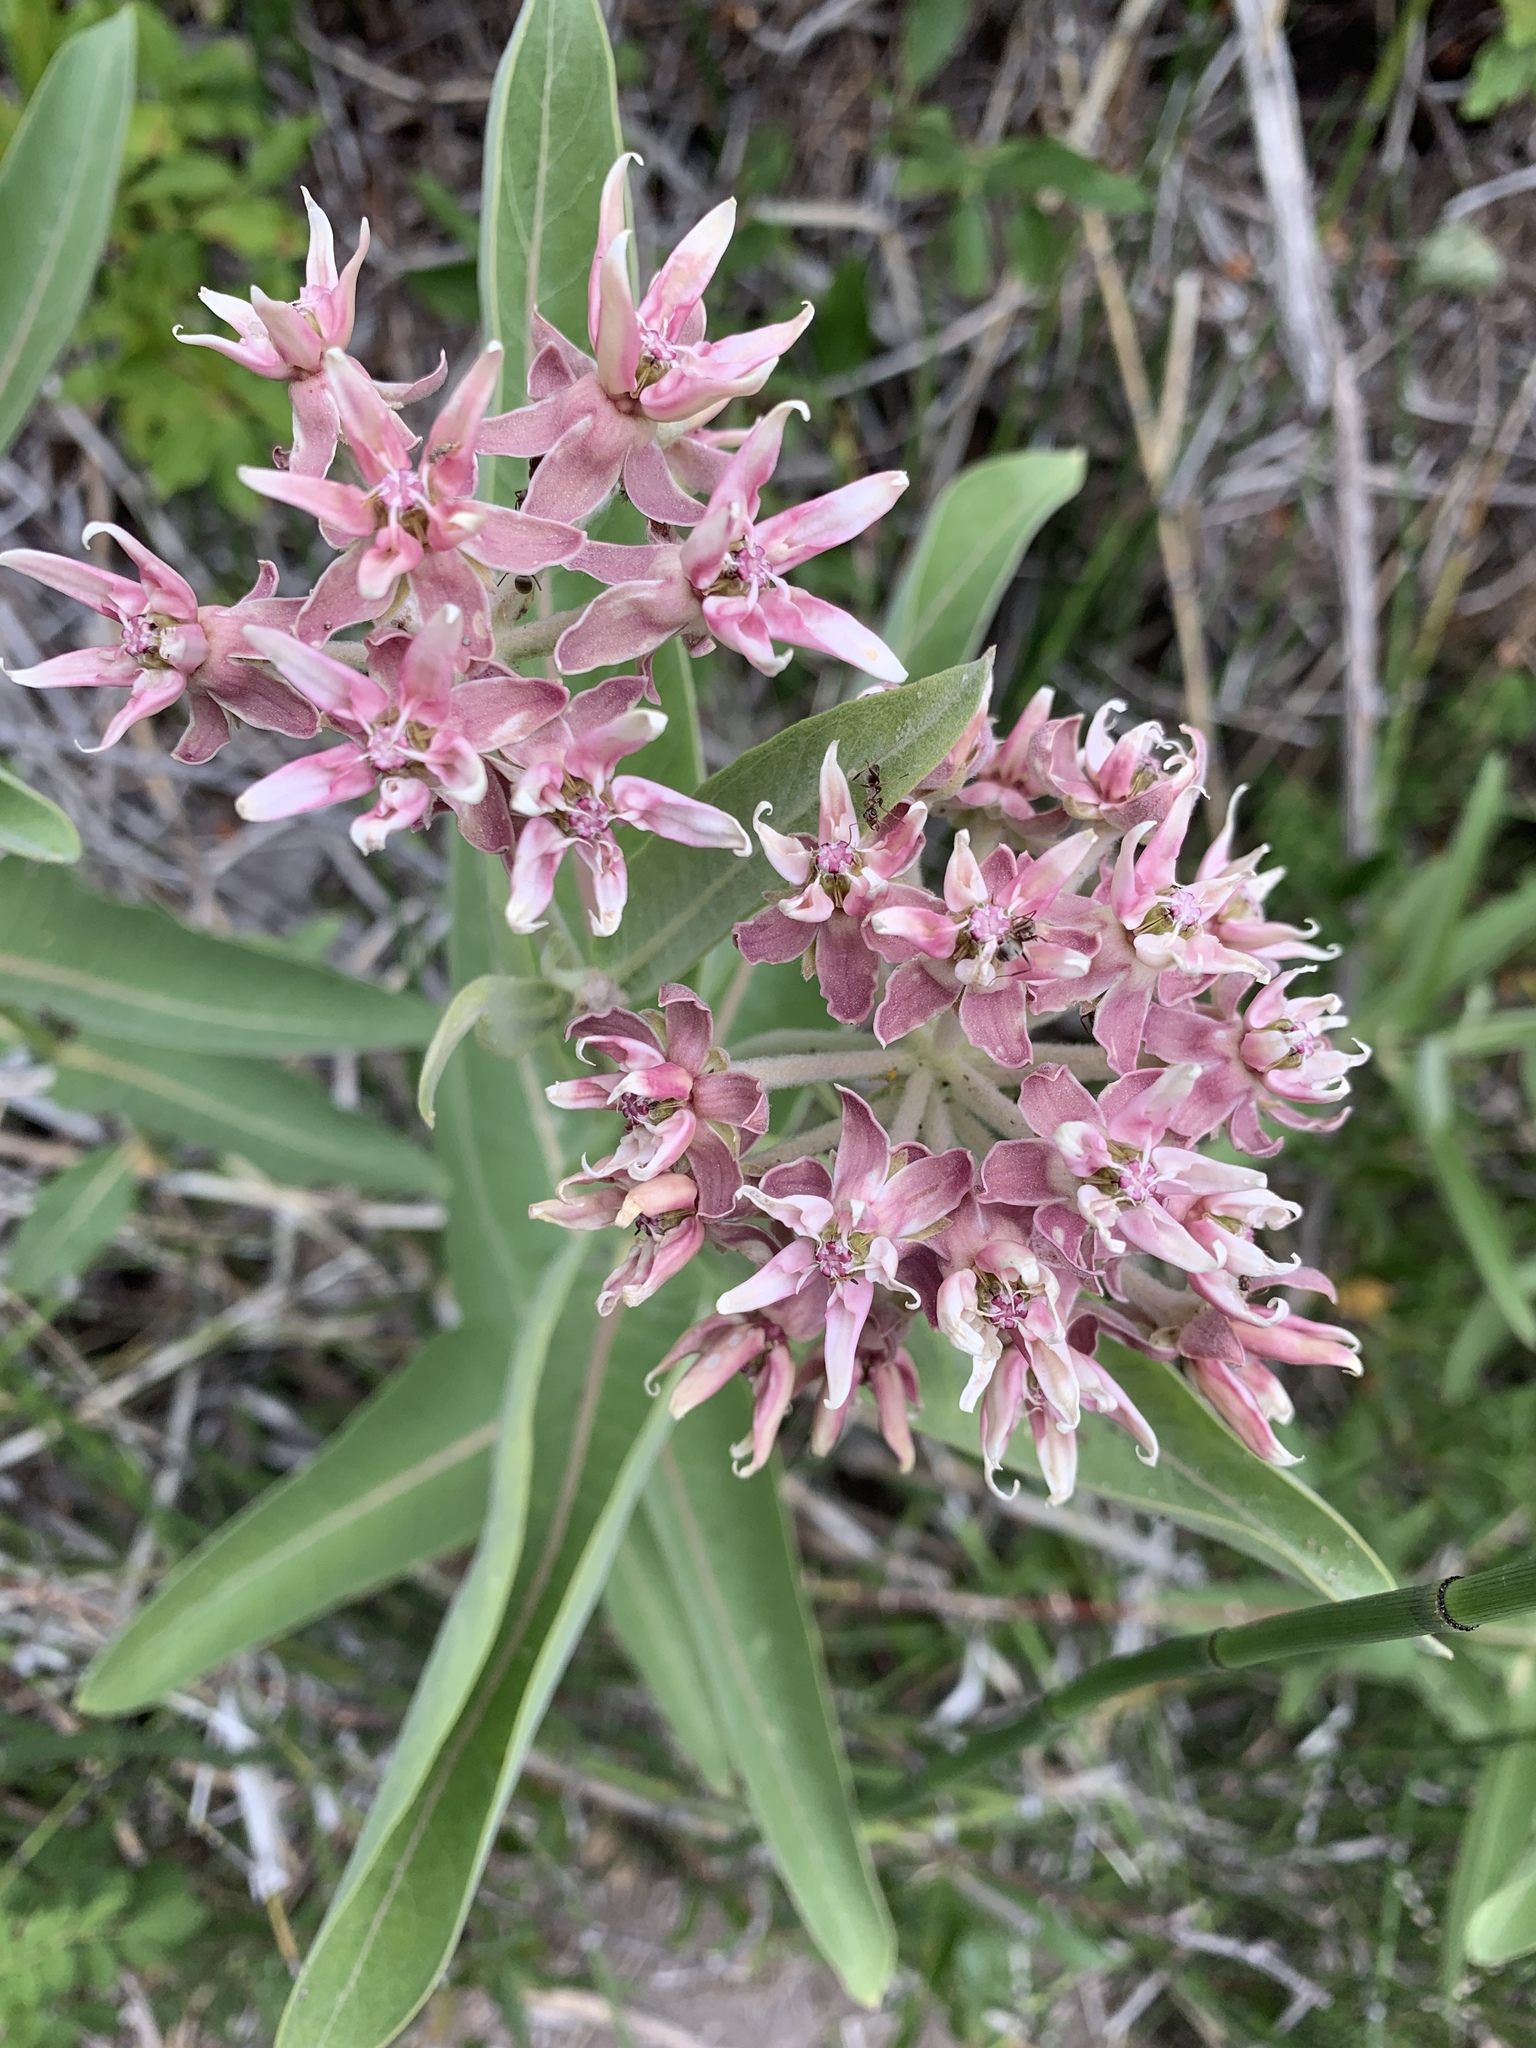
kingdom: Plantae
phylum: Tracheophyta
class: Magnoliopsida
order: Gentianales
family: Apocynaceae
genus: Asclepias
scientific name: Asclepias speciosa
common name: Showy milkweed
